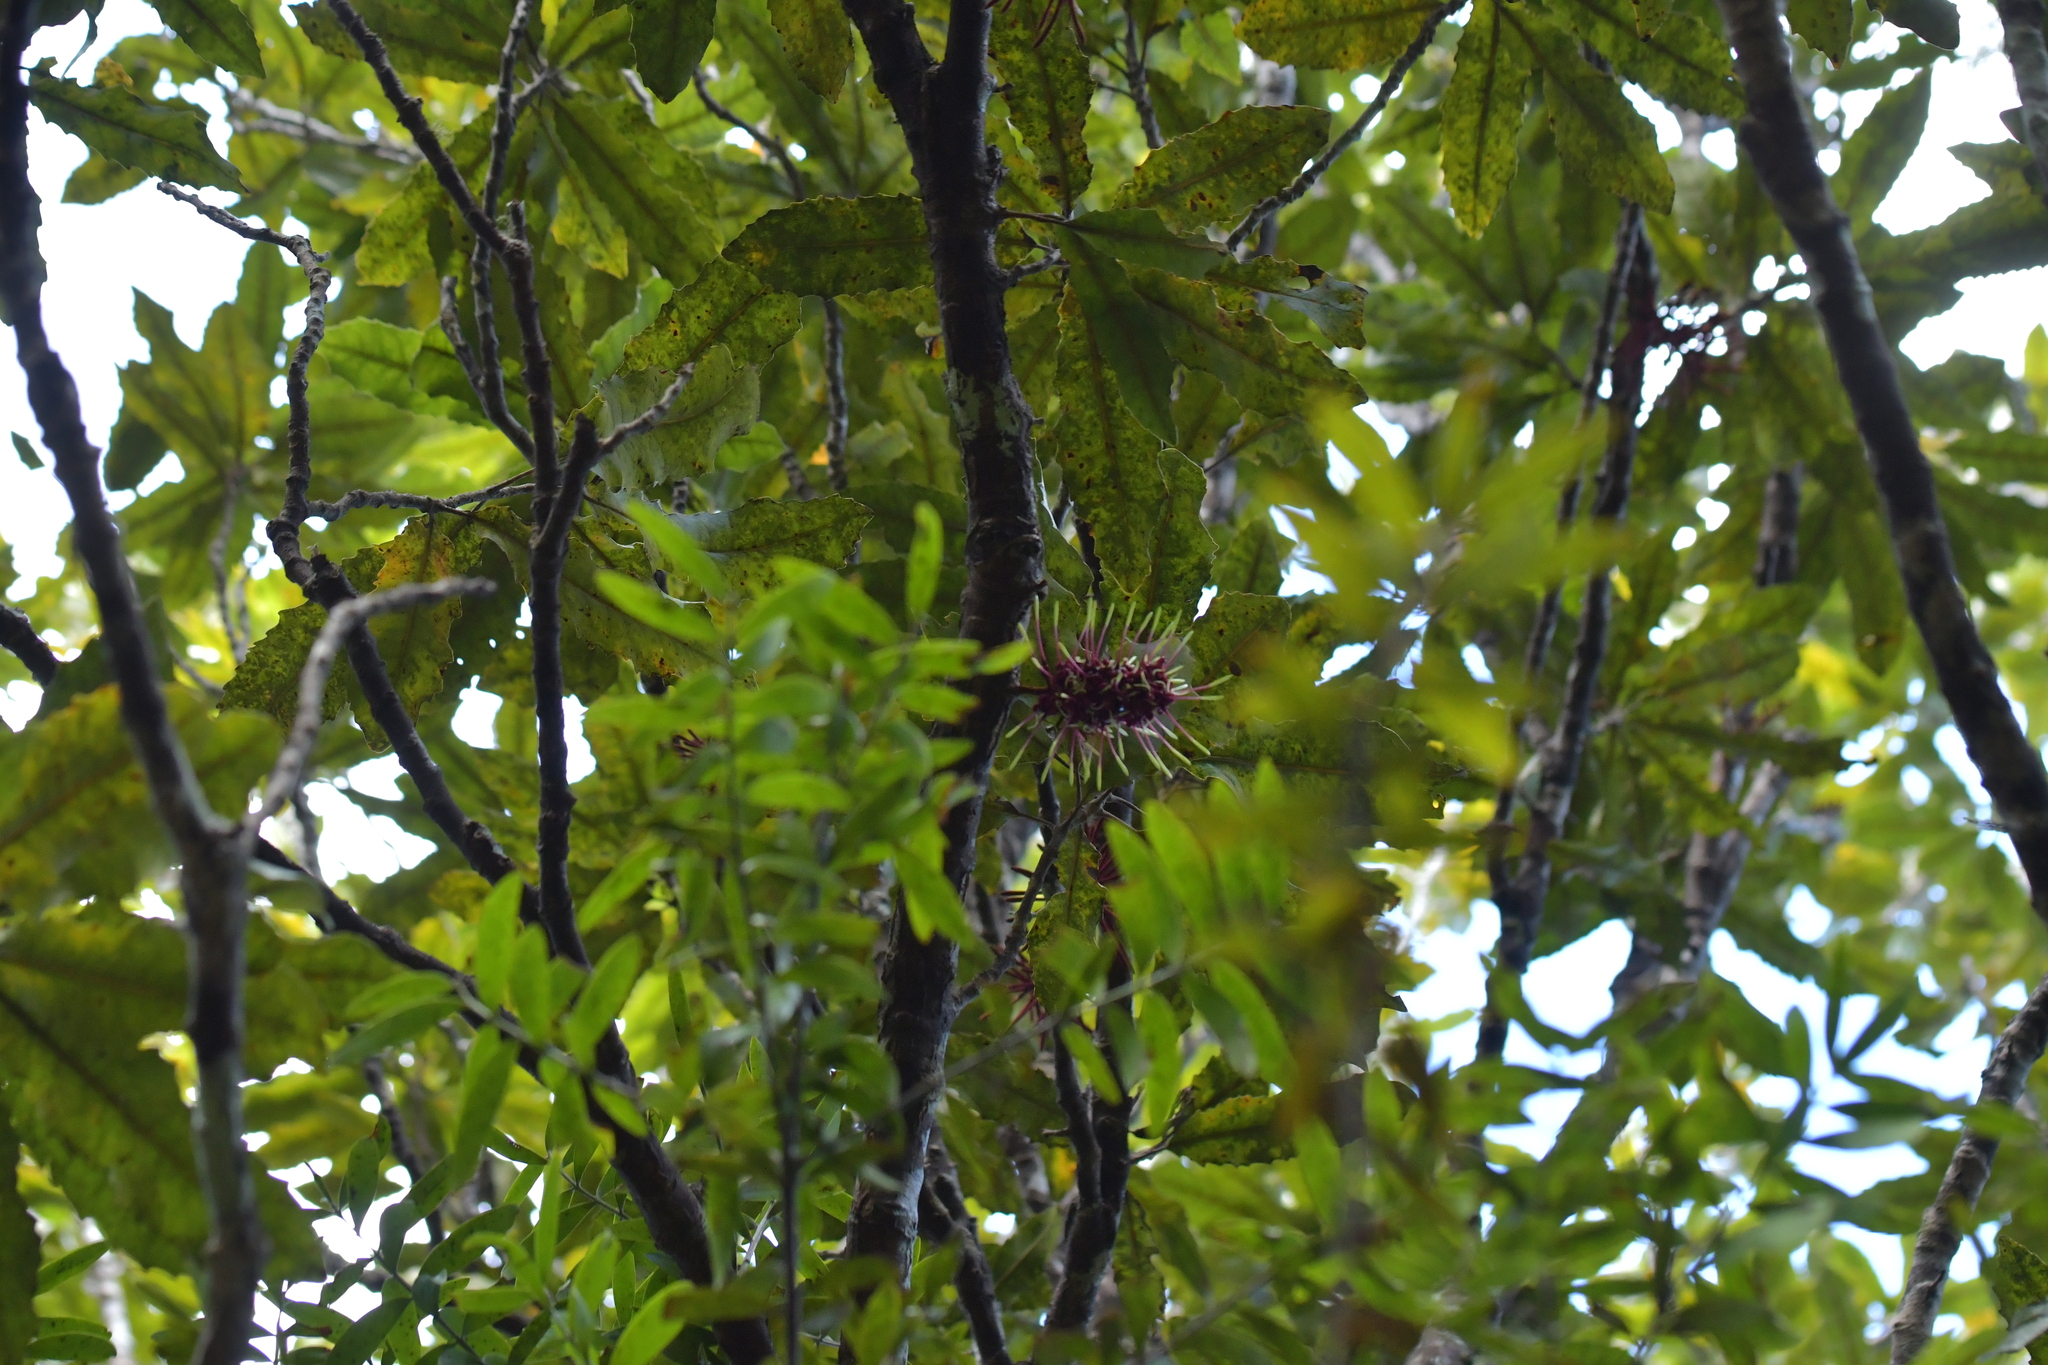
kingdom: Plantae
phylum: Tracheophyta
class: Magnoliopsida
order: Proteales
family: Proteaceae
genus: Knightia
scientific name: Knightia excelsa
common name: New zealand-honeysuckle
